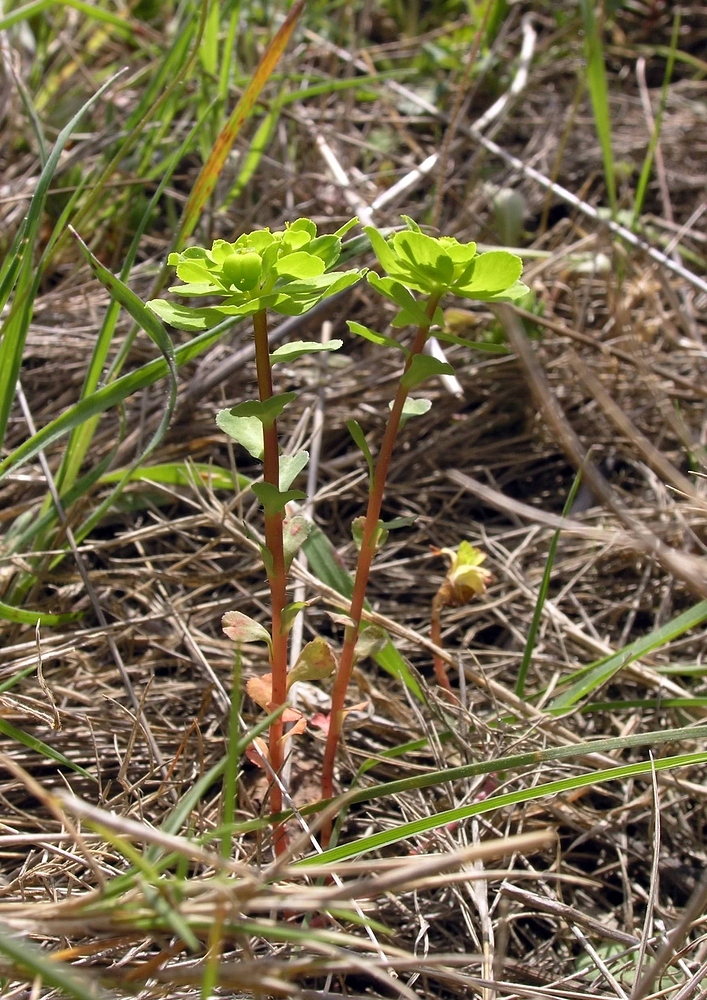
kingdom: Plantae
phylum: Tracheophyta
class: Magnoliopsida
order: Malpighiales
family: Euphorbiaceae
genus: Euphorbia
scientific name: Euphorbia helioscopia
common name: Sun spurge
